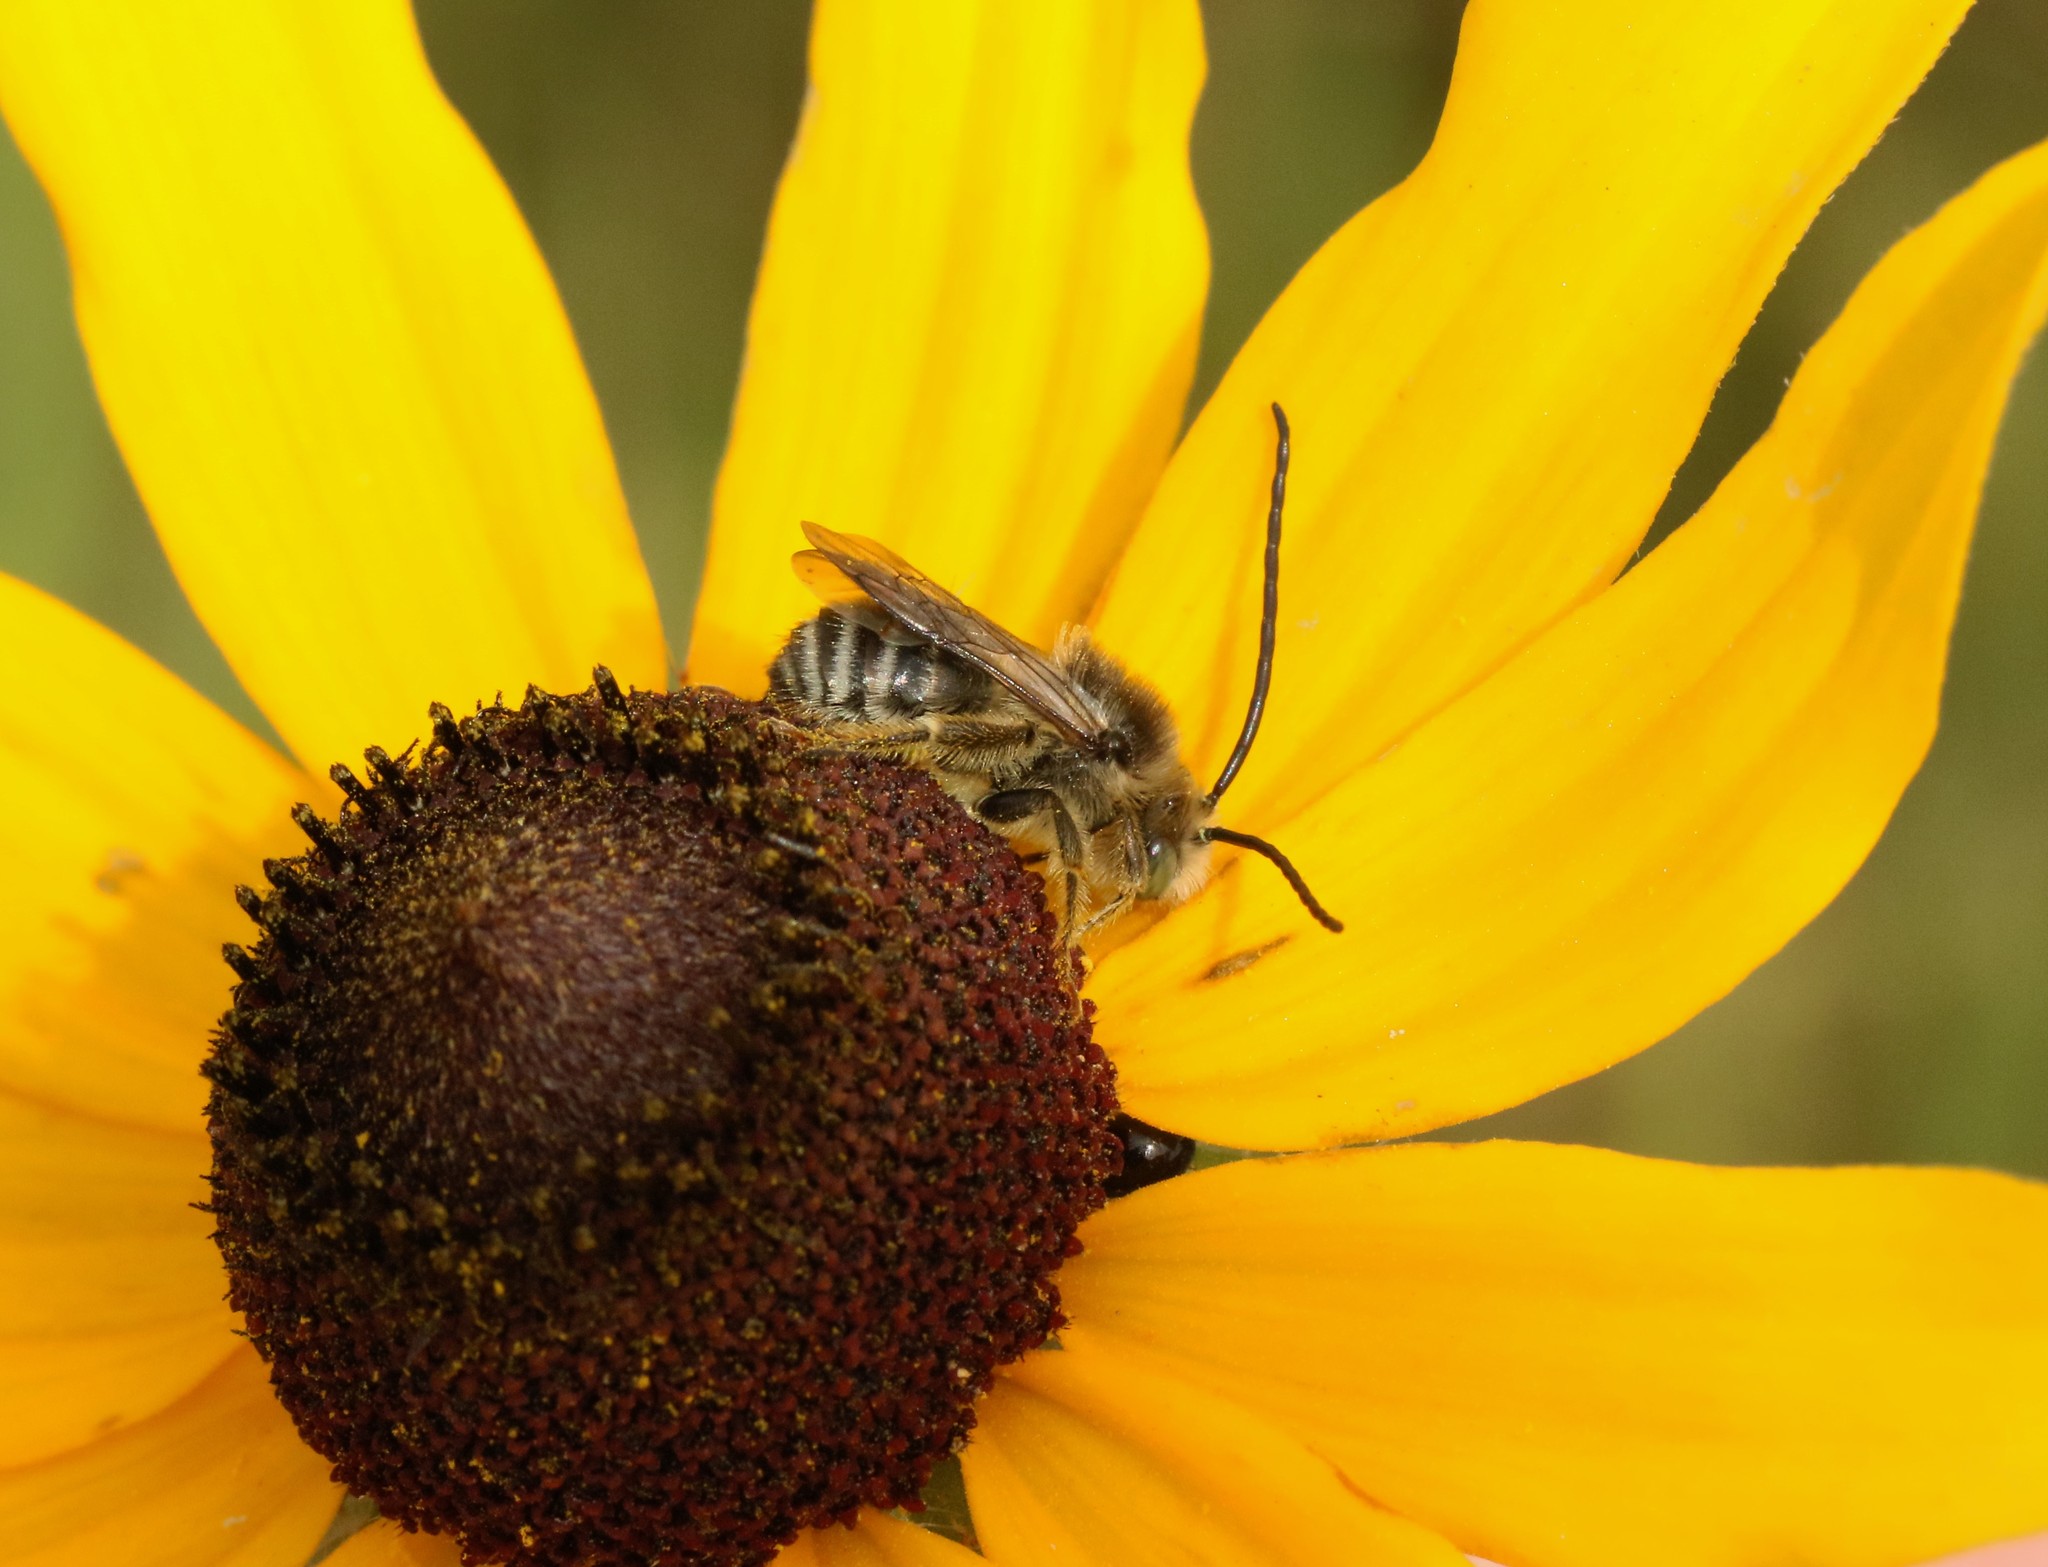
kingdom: Animalia
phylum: Arthropoda
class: Insecta
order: Hymenoptera
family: Apidae
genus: Melissodes
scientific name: Melissodes illatus
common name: Valiant long-horned bee
